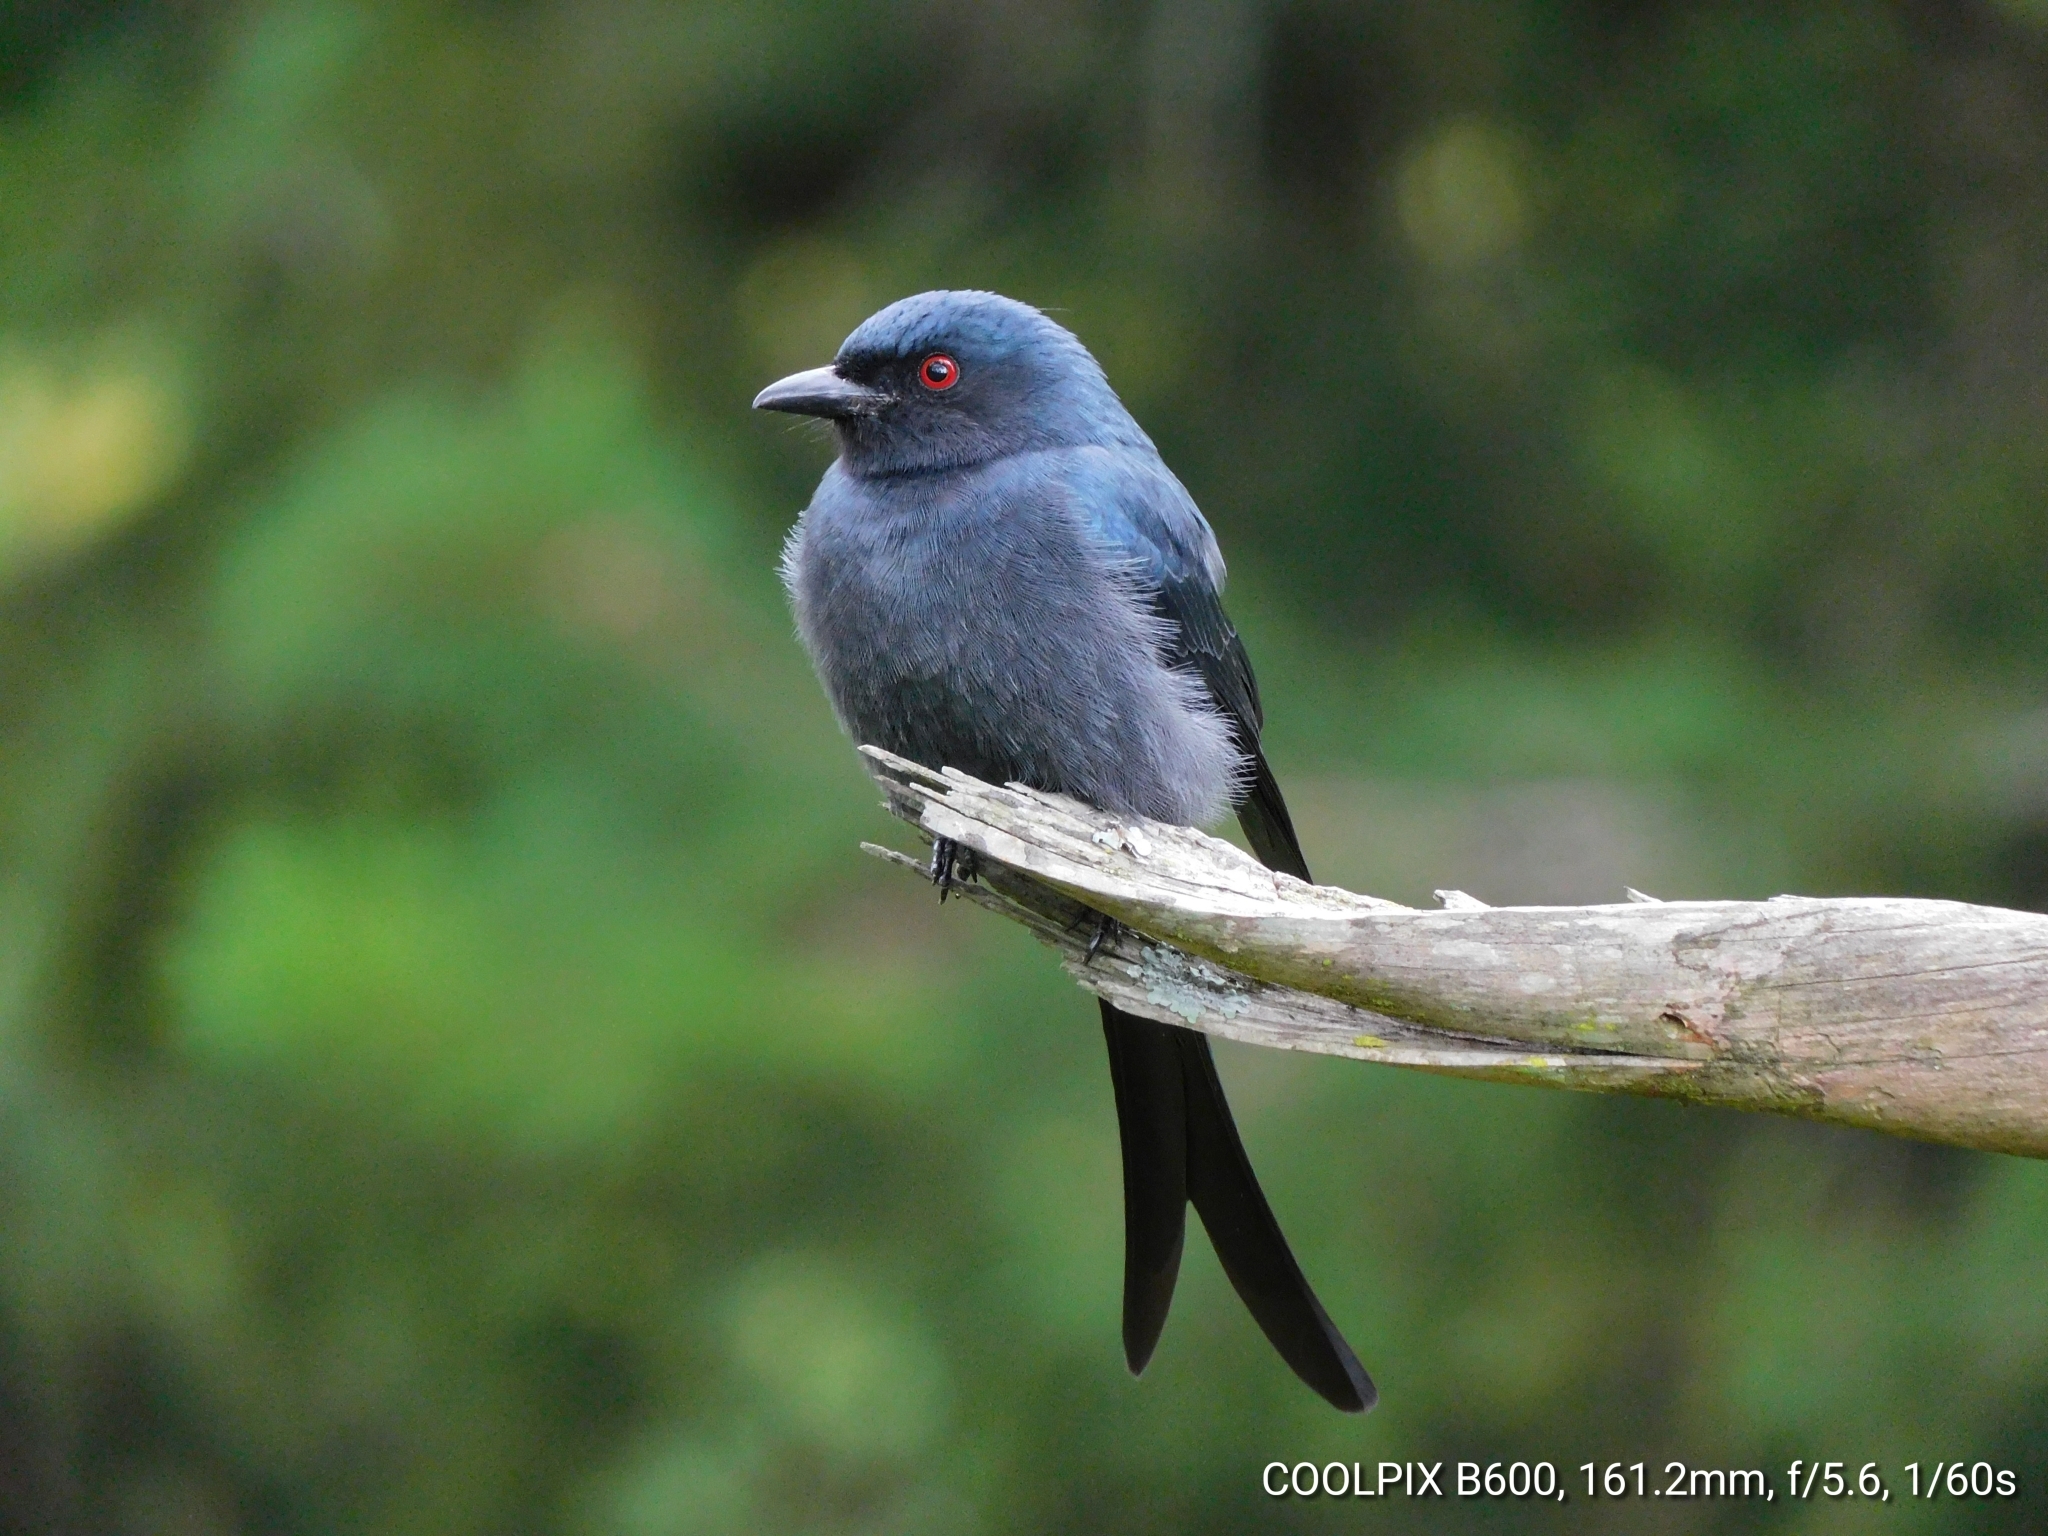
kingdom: Animalia
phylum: Chordata
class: Aves
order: Passeriformes
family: Dicruridae
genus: Dicrurus
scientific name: Dicrurus leucophaeus
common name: Ashy drongo
